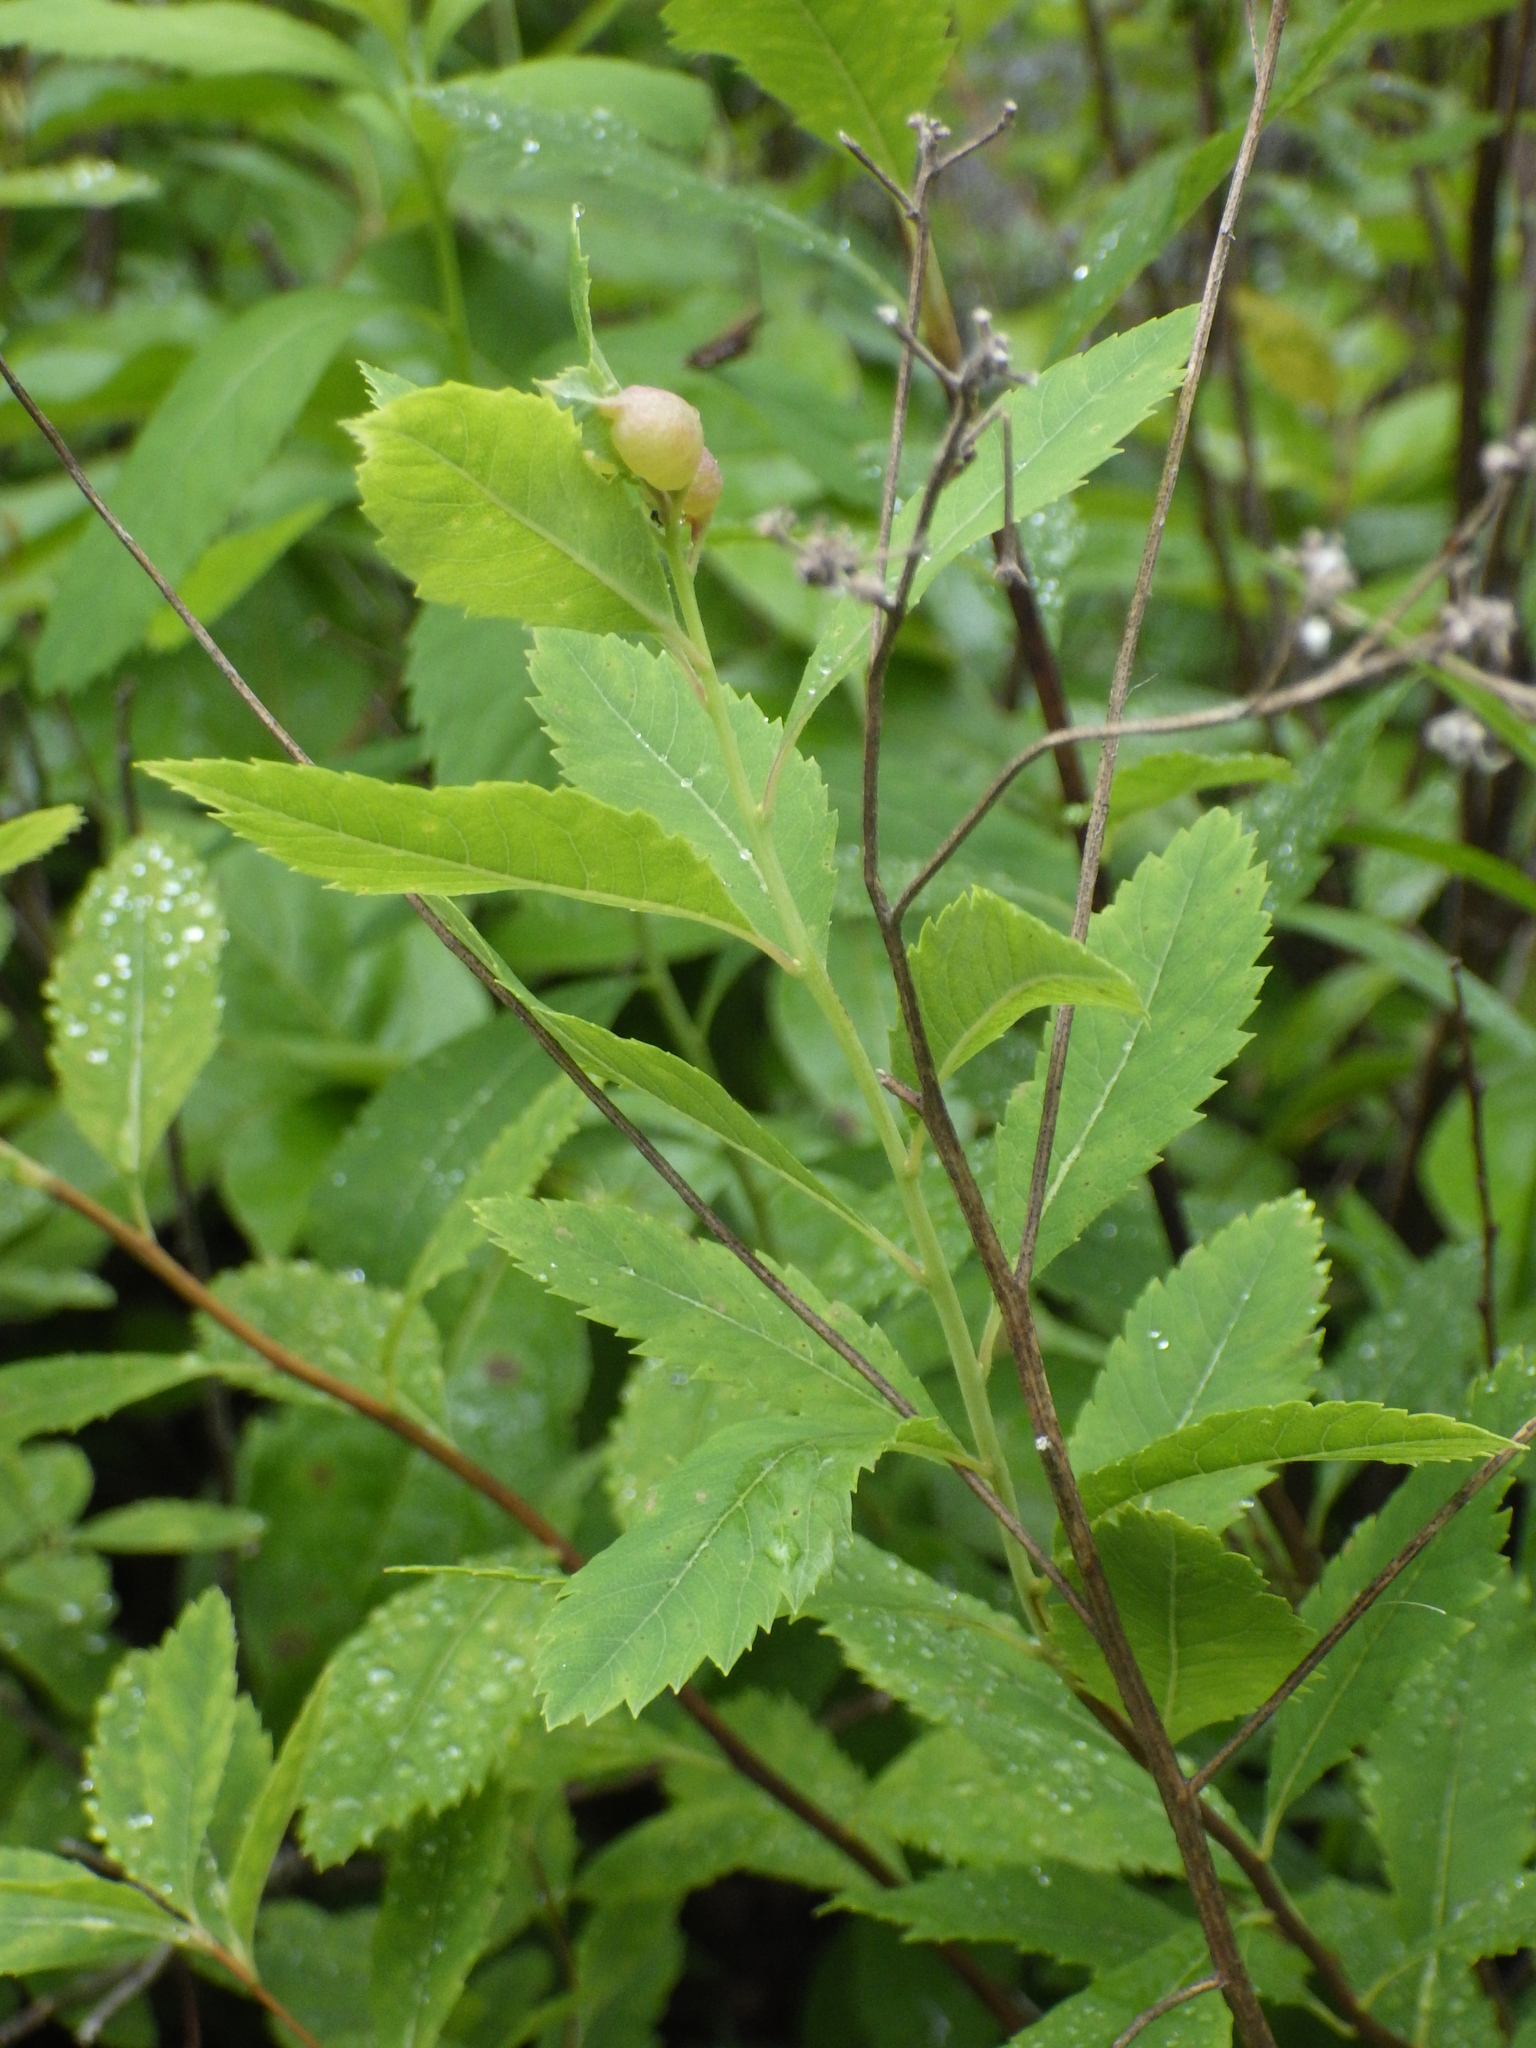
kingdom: Plantae
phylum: Tracheophyta
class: Magnoliopsida
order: Rosales
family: Rosaceae
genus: Spiraea
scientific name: Spiraea alba
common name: Pale bridewort
